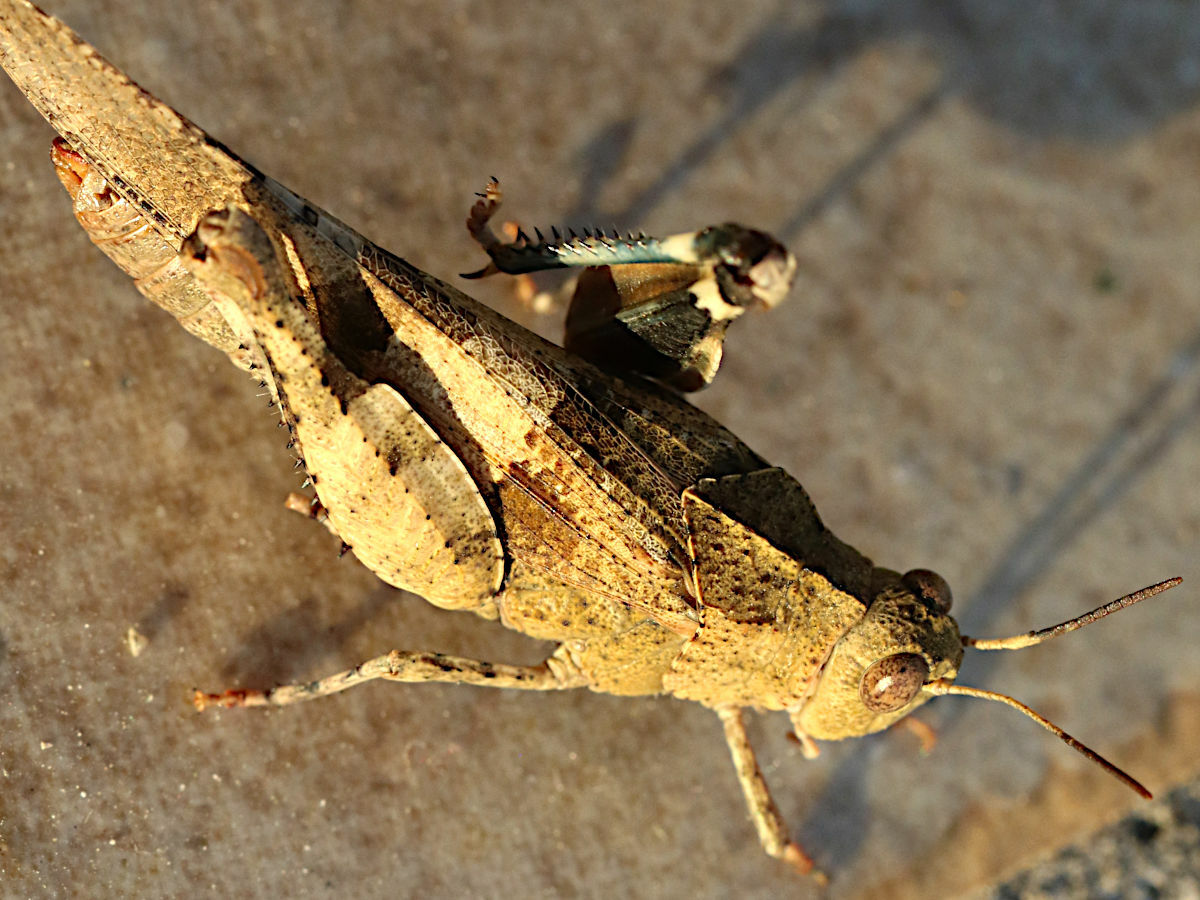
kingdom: Animalia
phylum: Arthropoda
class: Insecta
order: Orthoptera
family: Acrididae
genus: Oedipoda
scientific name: Oedipoda
